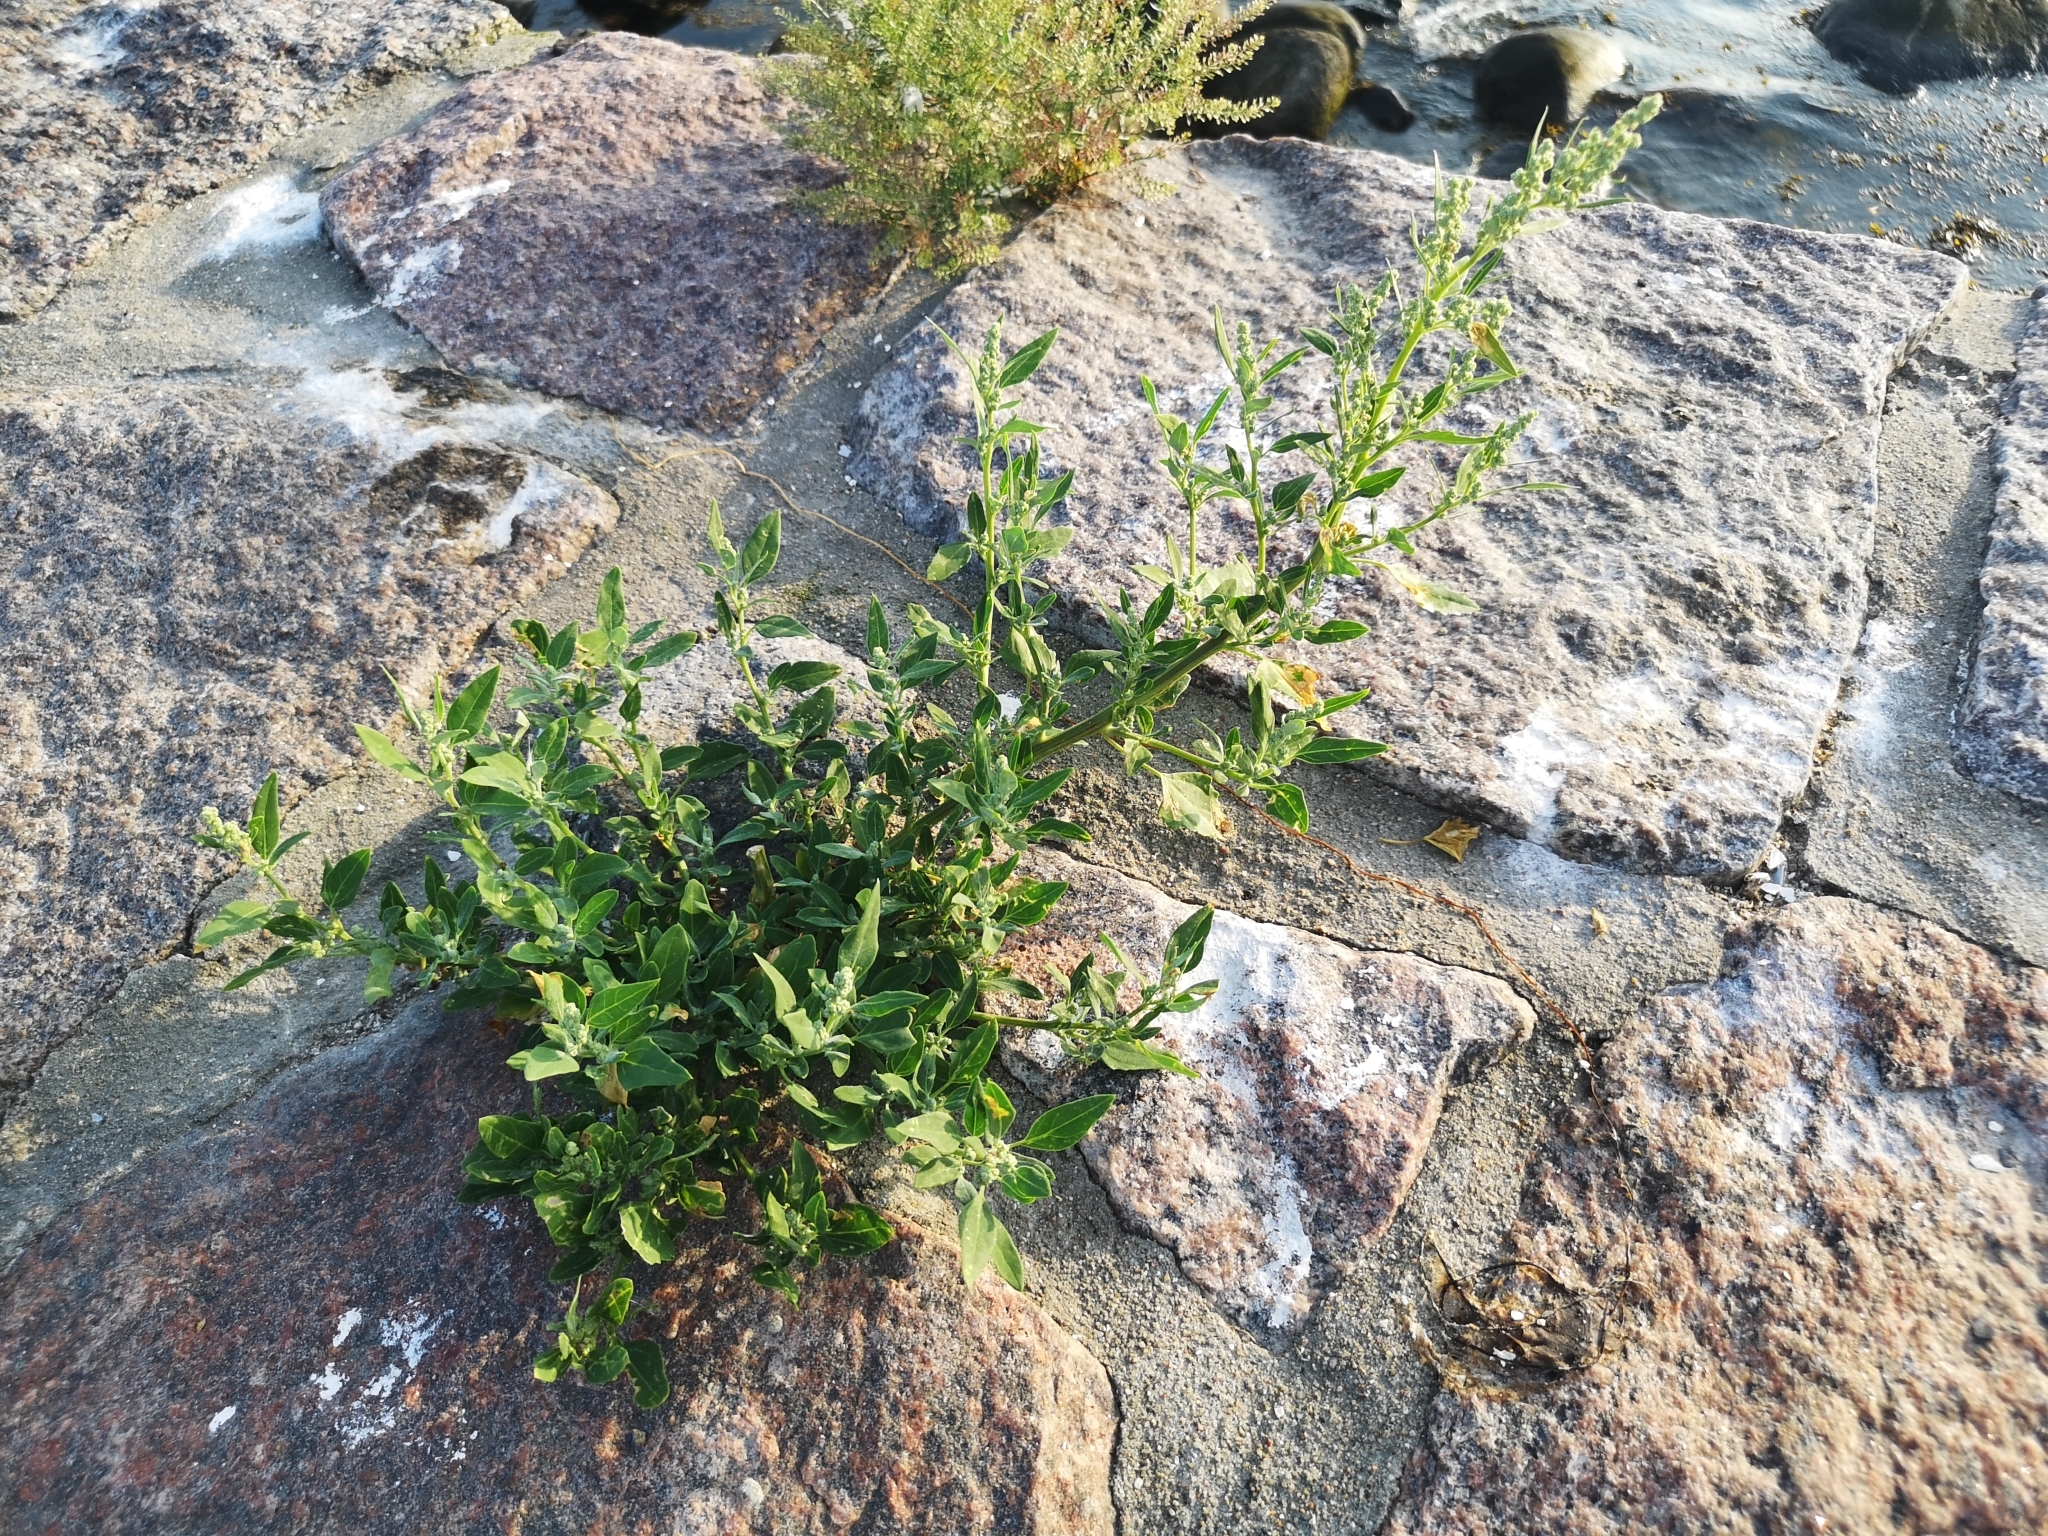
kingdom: Plantae
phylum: Tracheophyta
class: Magnoliopsida
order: Caryophyllales
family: Amaranthaceae
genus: Chenopodium
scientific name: Chenopodium album
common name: Fat-hen
